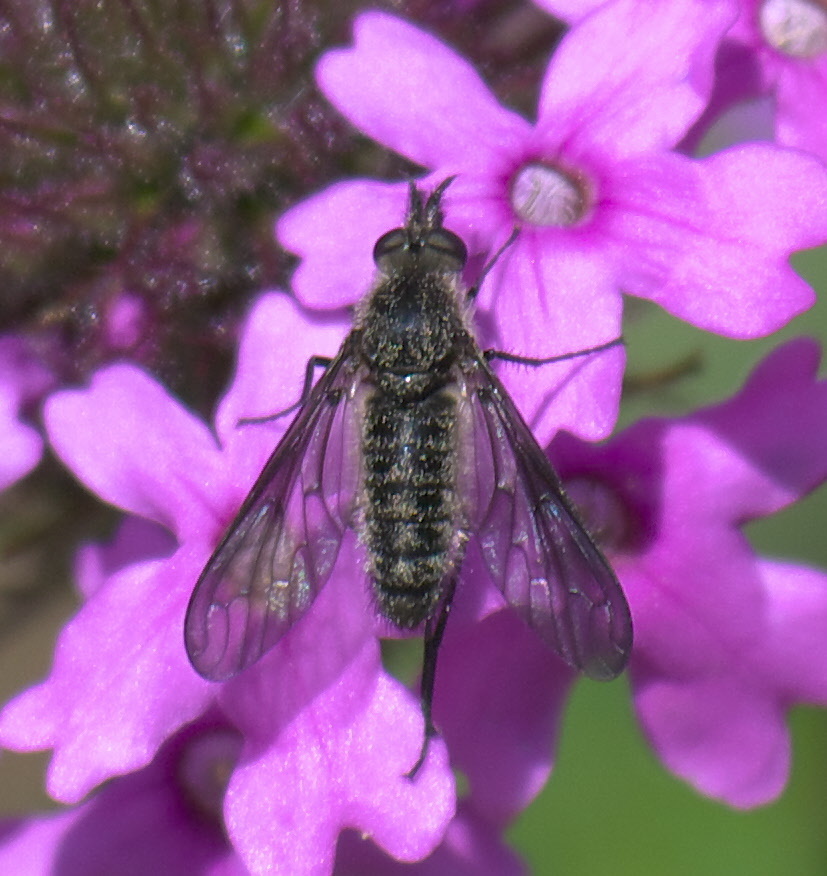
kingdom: Animalia
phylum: Arthropoda
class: Insecta
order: Diptera
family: Bombyliidae
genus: Aldrichia
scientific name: Aldrichia ehrmanni
